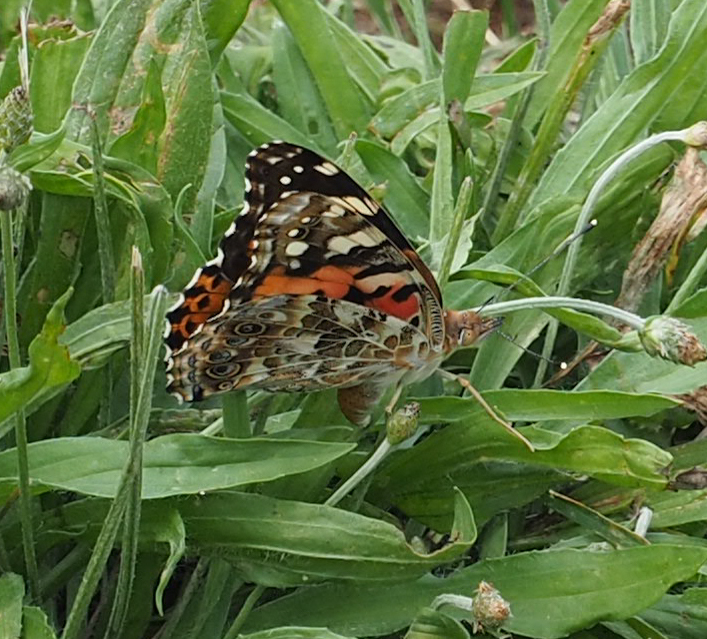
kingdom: Animalia
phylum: Arthropoda
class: Insecta
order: Lepidoptera
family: Nymphalidae
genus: Vanessa
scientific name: Vanessa cardui
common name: Painted lady
